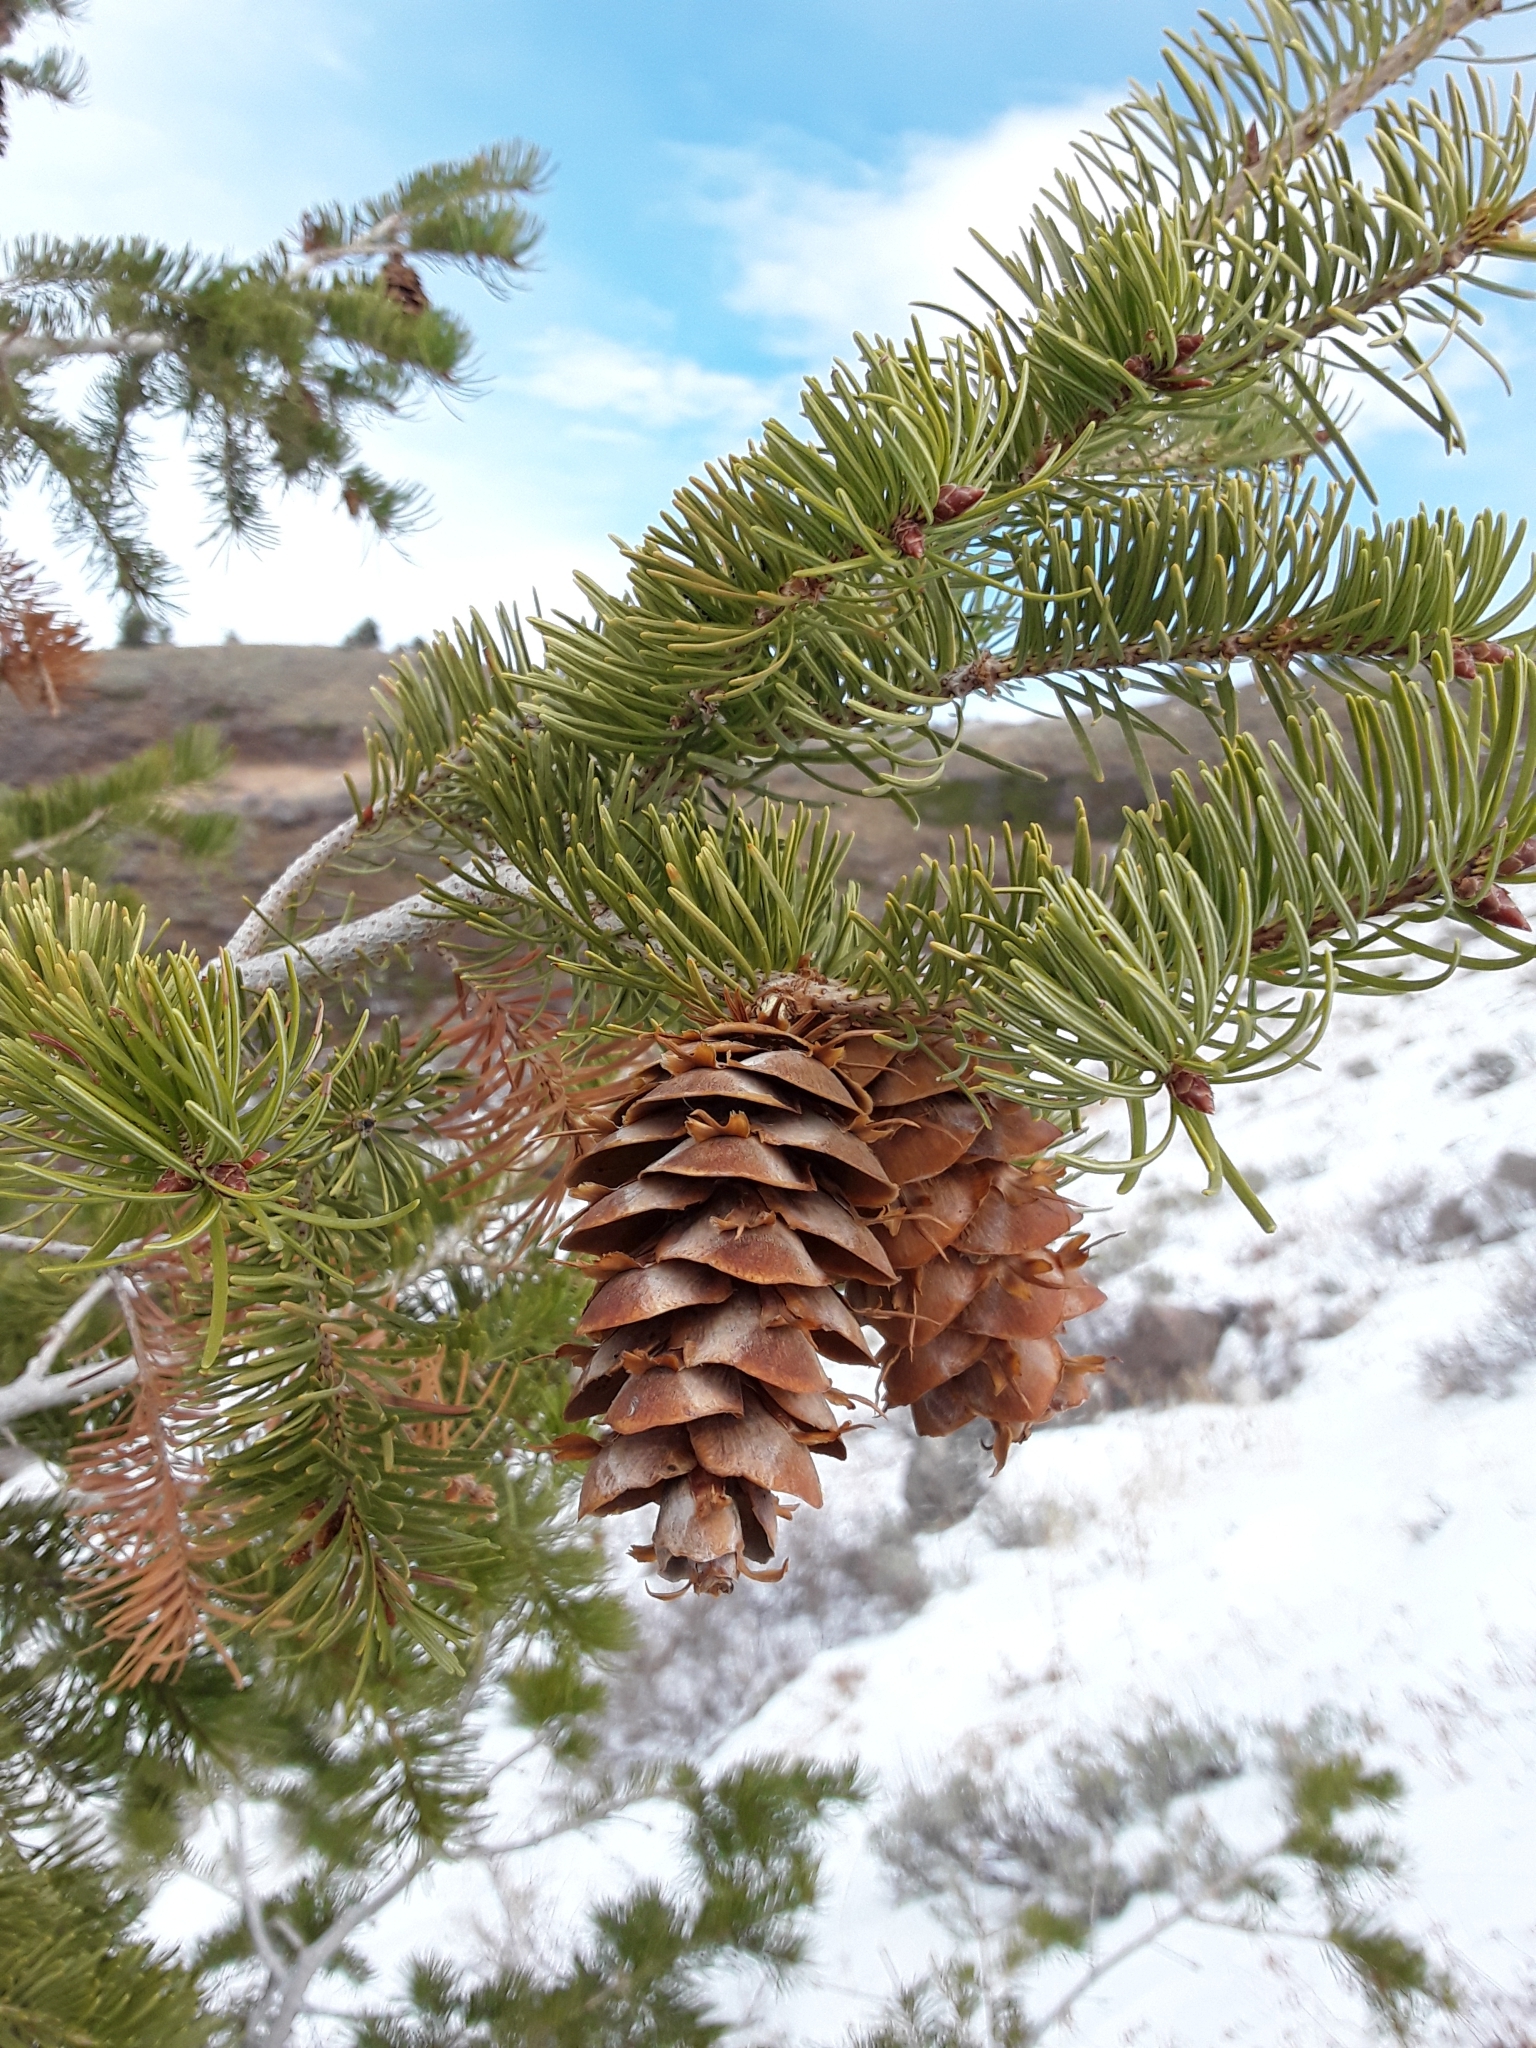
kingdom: Plantae
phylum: Tracheophyta
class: Pinopsida
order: Pinales
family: Pinaceae
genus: Pseudotsuga
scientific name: Pseudotsuga menziesii
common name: Douglas fir
